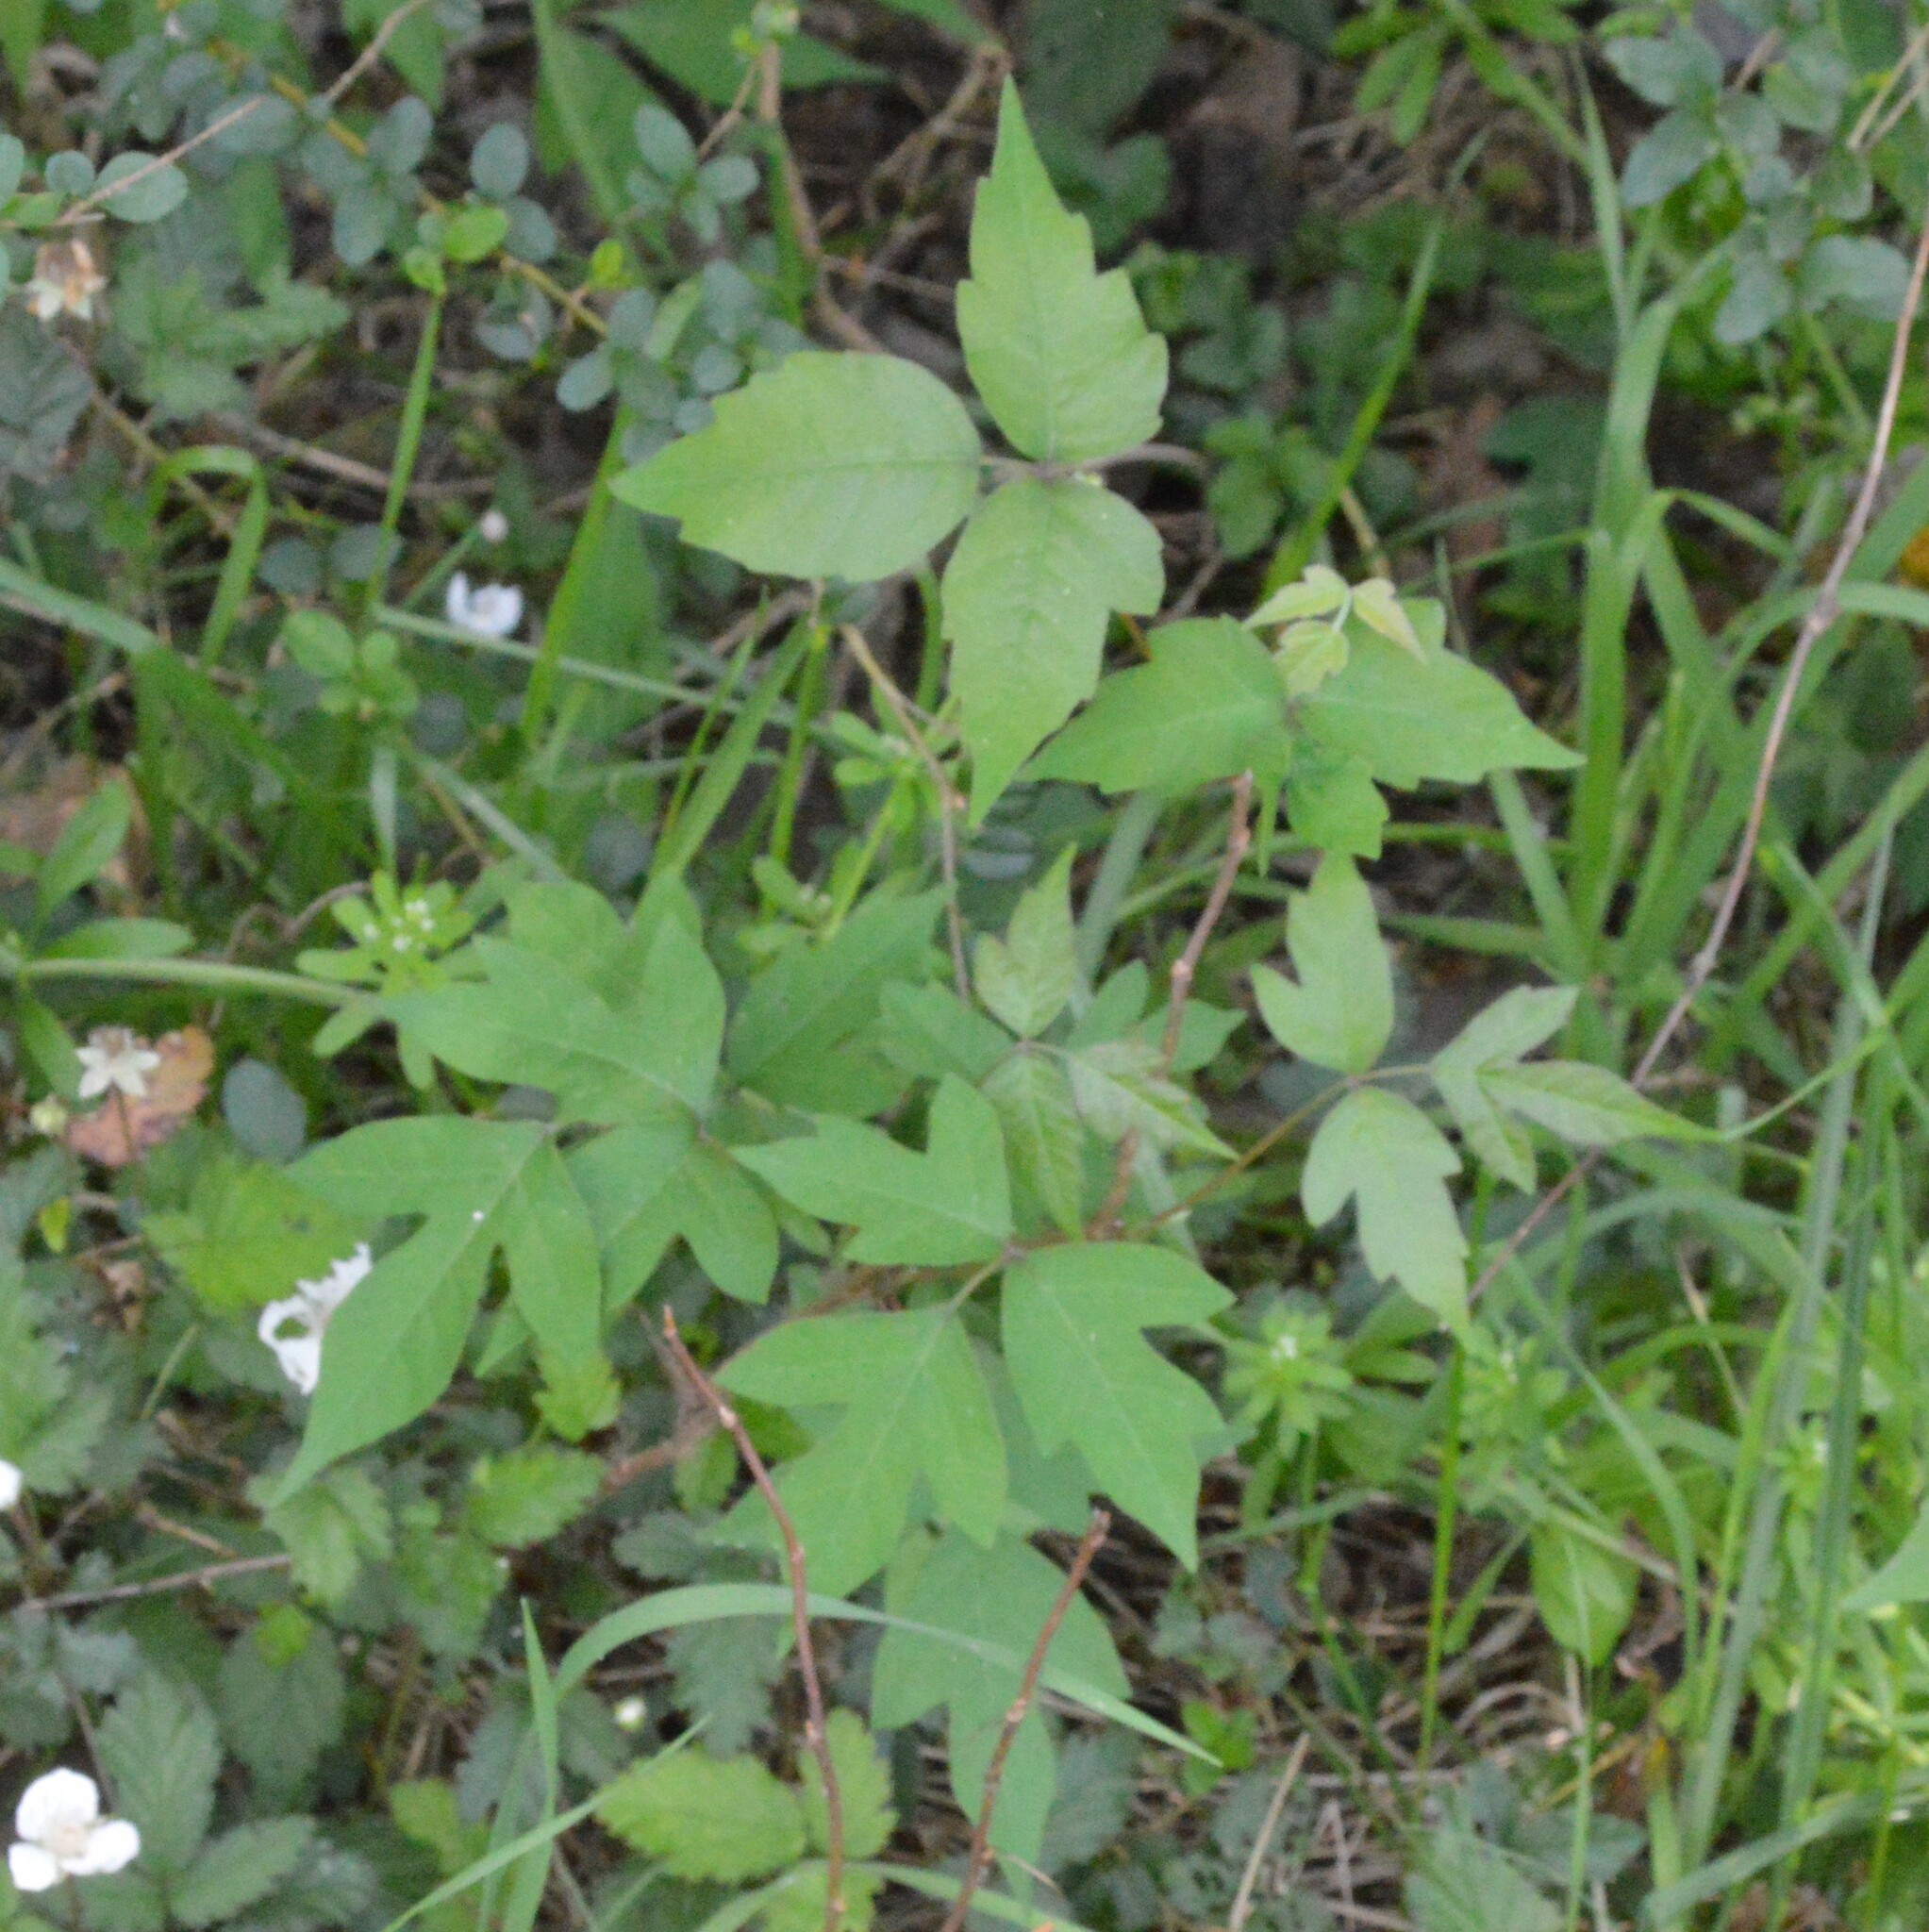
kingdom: Plantae
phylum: Tracheophyta
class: Magnoliopsida
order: Sapindales
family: Anacardiaceae
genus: Toxicodendron
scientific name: Toxicodendron radicans
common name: Poison ivy
